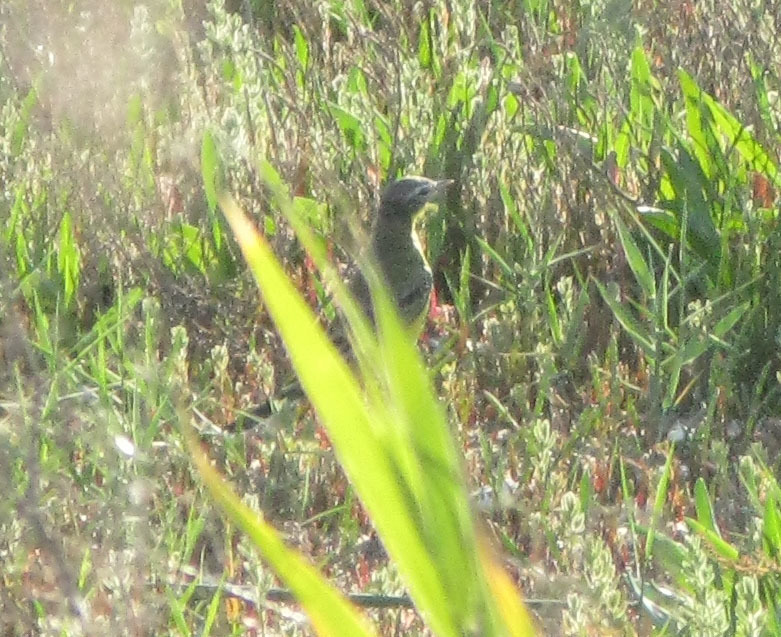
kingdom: Animalia
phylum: Chordata
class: Aves
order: Passeriformes
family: Motacillidae
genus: Motacilla
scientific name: Motacilla flava
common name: Western yellow wagtail
